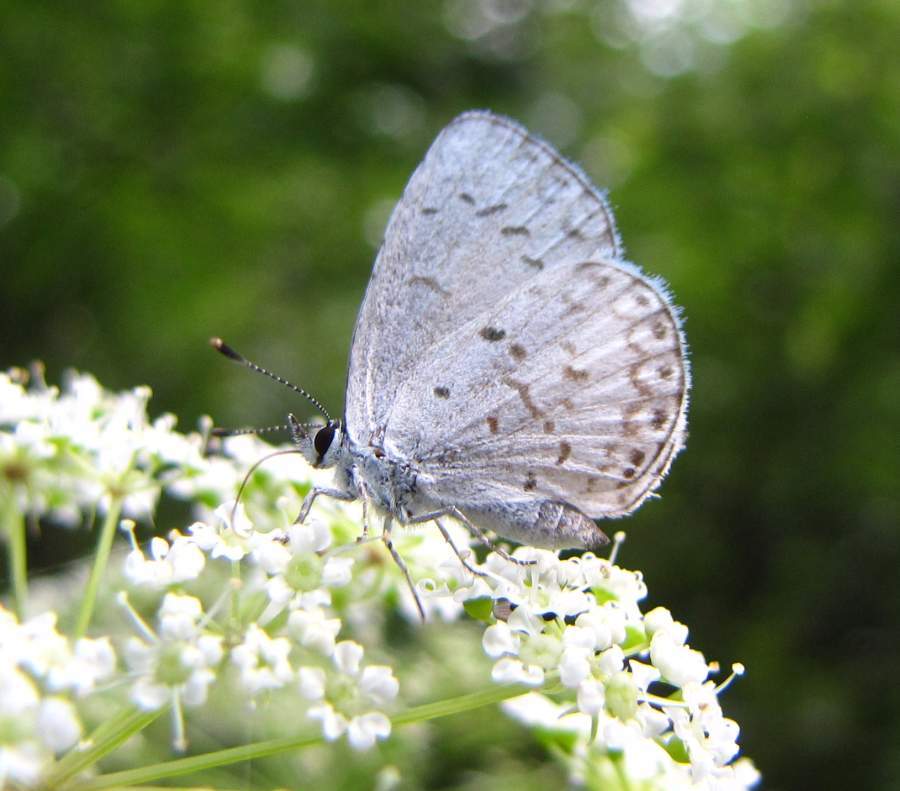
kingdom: Animalia
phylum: Arthropoda
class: Insecta
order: Lepidoptera
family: Lycaenidae
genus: Celastrina
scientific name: Celastrina lucia
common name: Lucia azure
